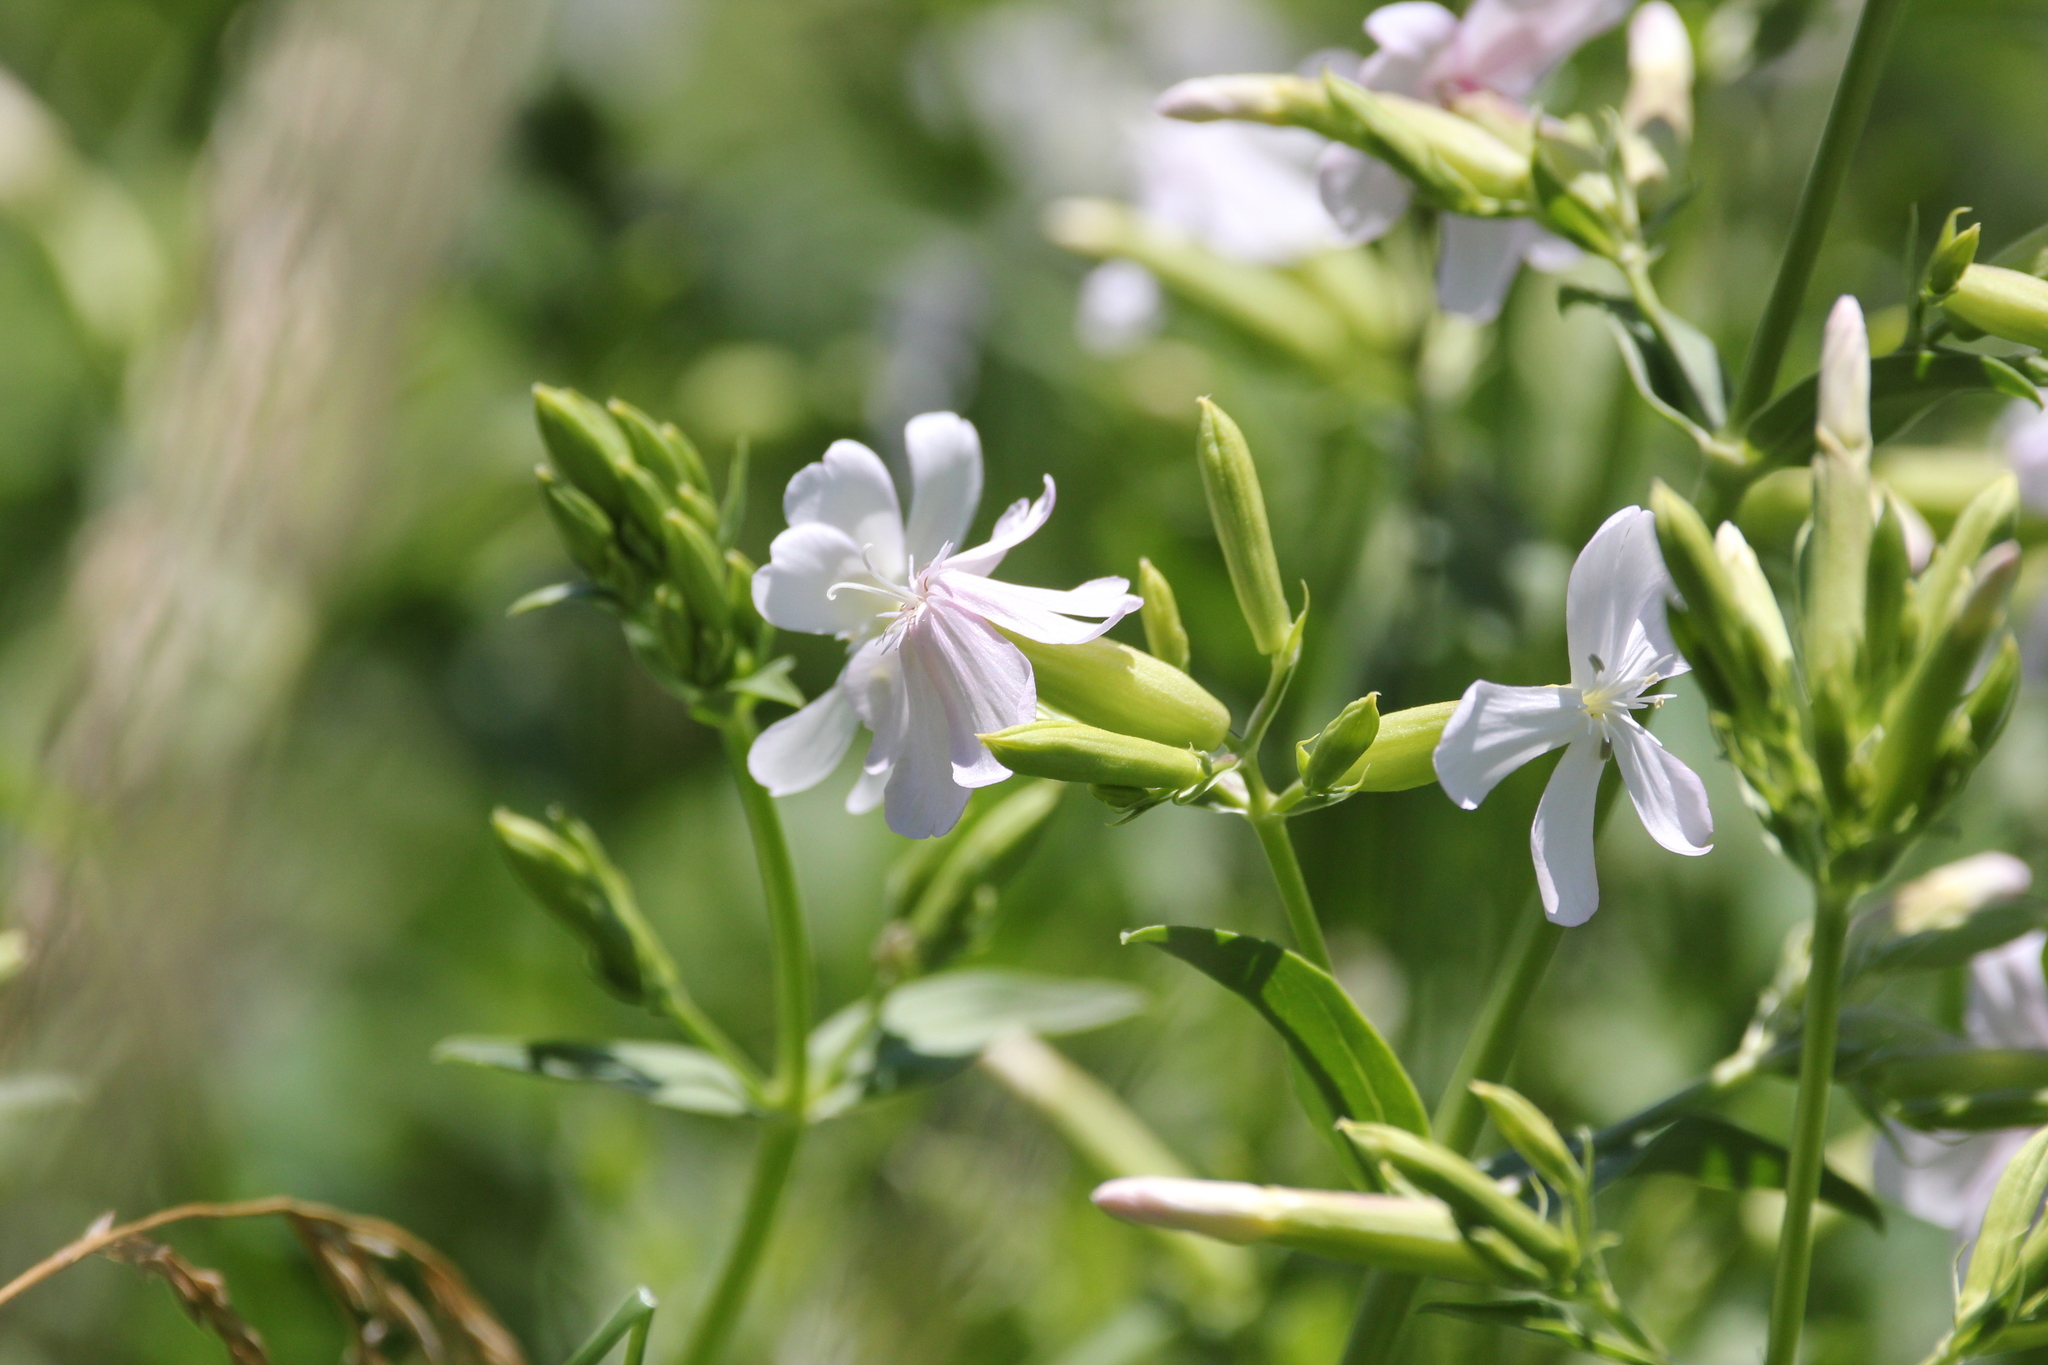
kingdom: Plantae
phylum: Tracheophyta
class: Magnoliopsida
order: Caryophyllales
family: Caryophyllaceae
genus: Saponaria
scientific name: Saponaria officinalis
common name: Soapwort
